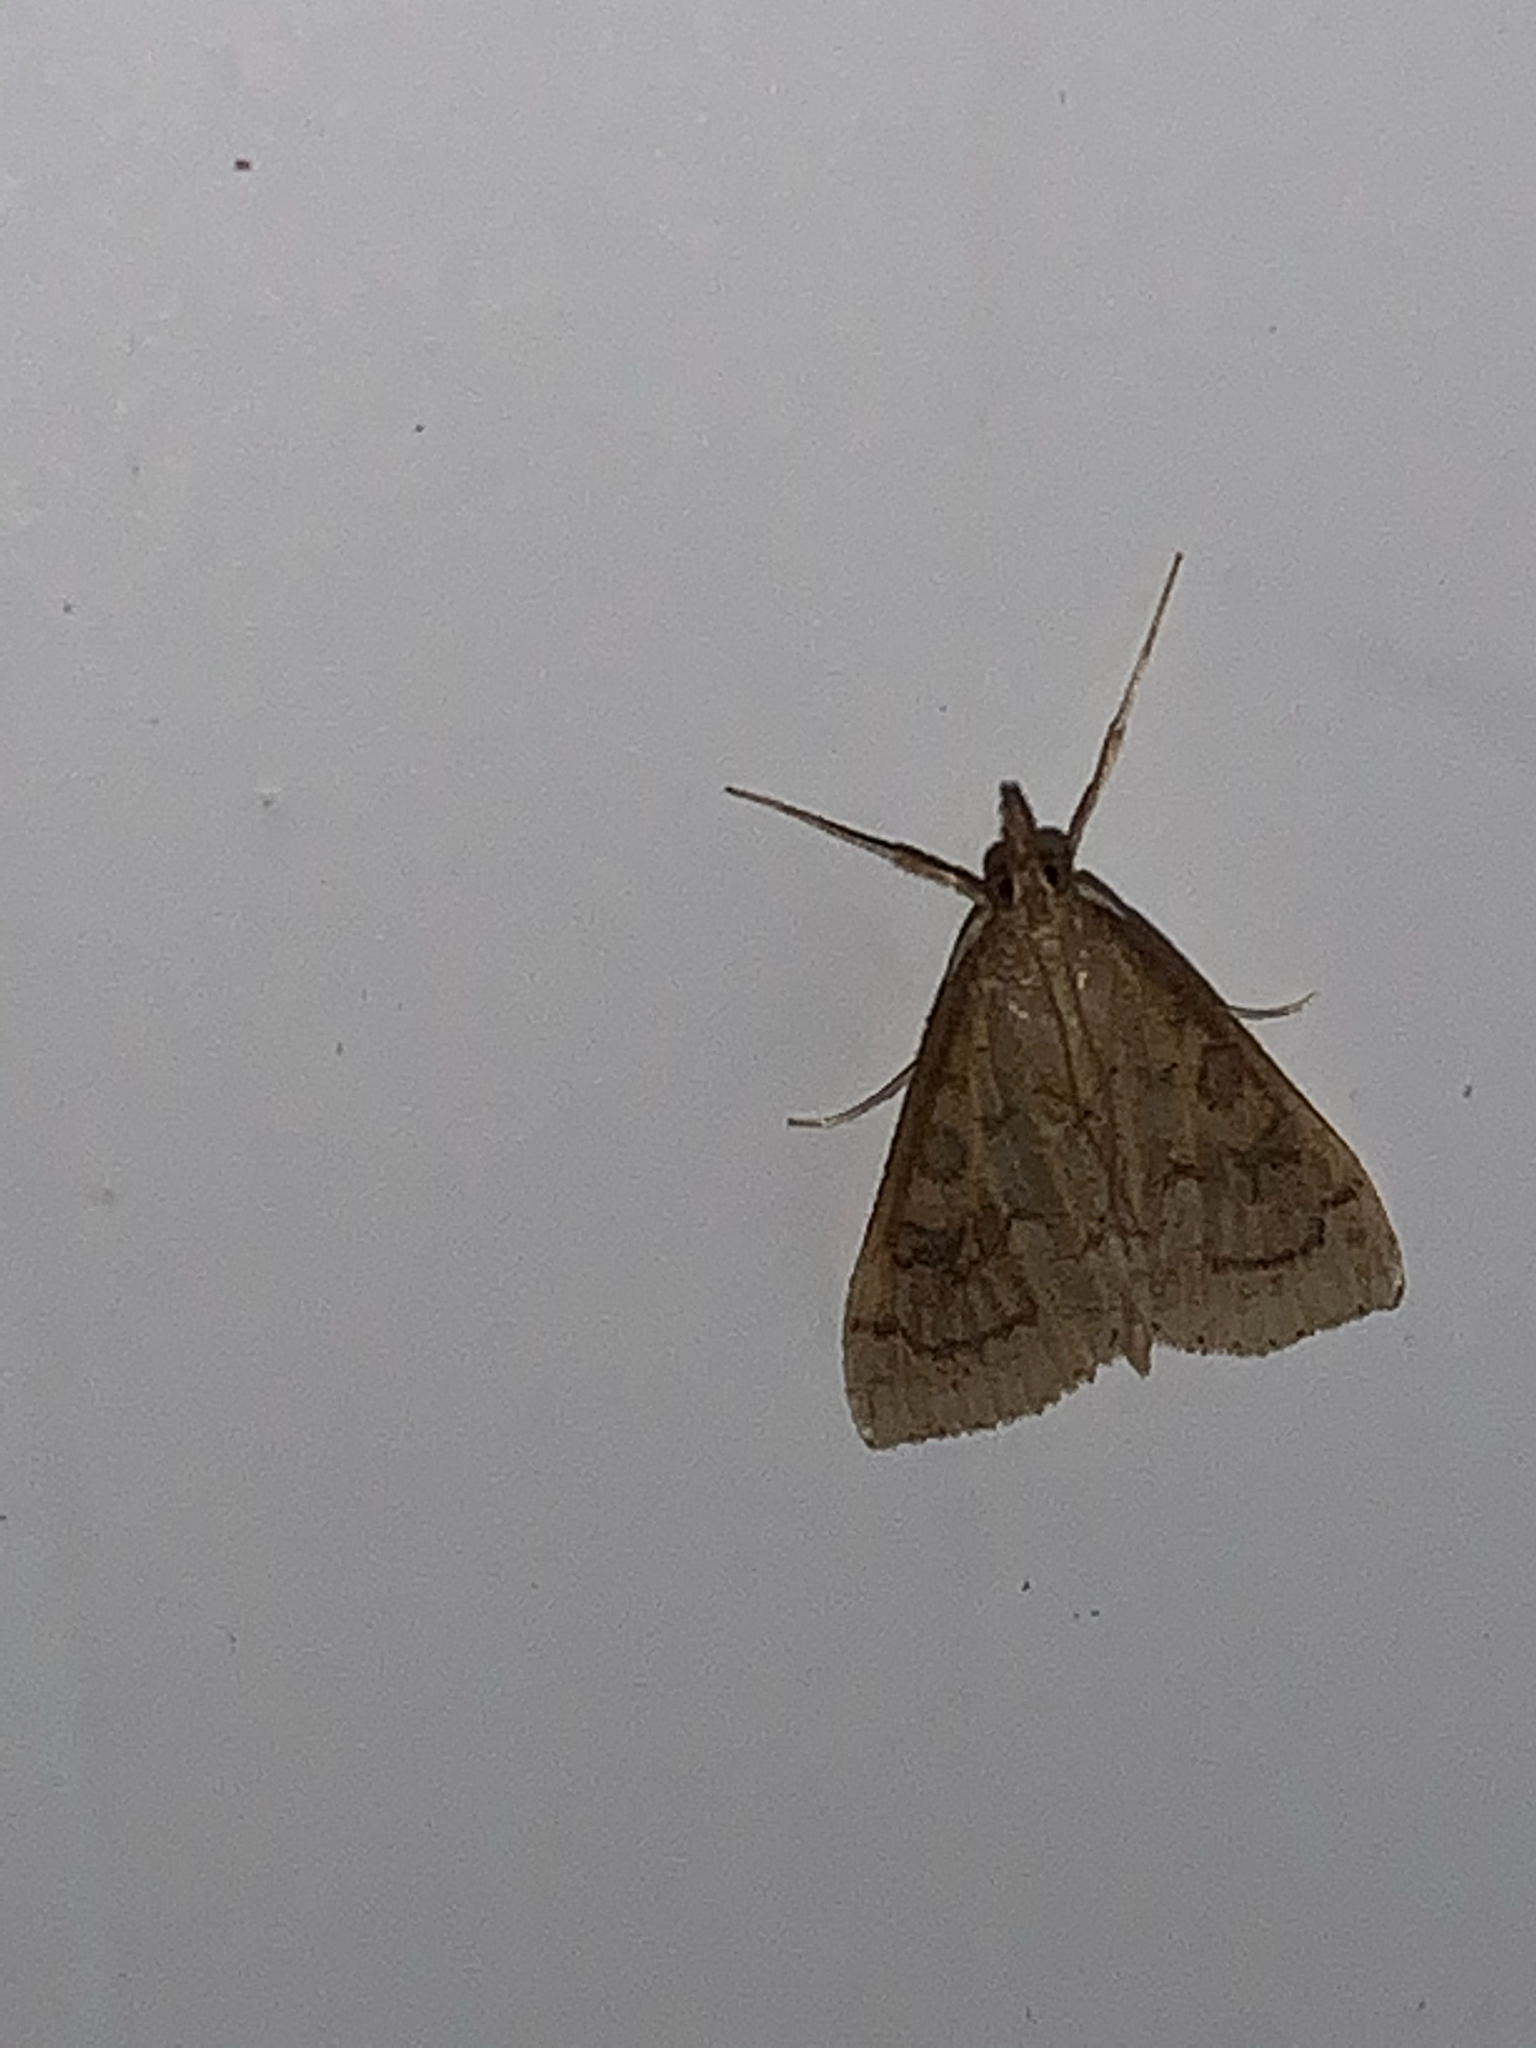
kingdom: Animalia
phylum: Arthropoda
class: Insecta
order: Lepidoptera
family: Crambidae
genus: Udea
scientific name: Udea rubigalis
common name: Celery leaftier moth
